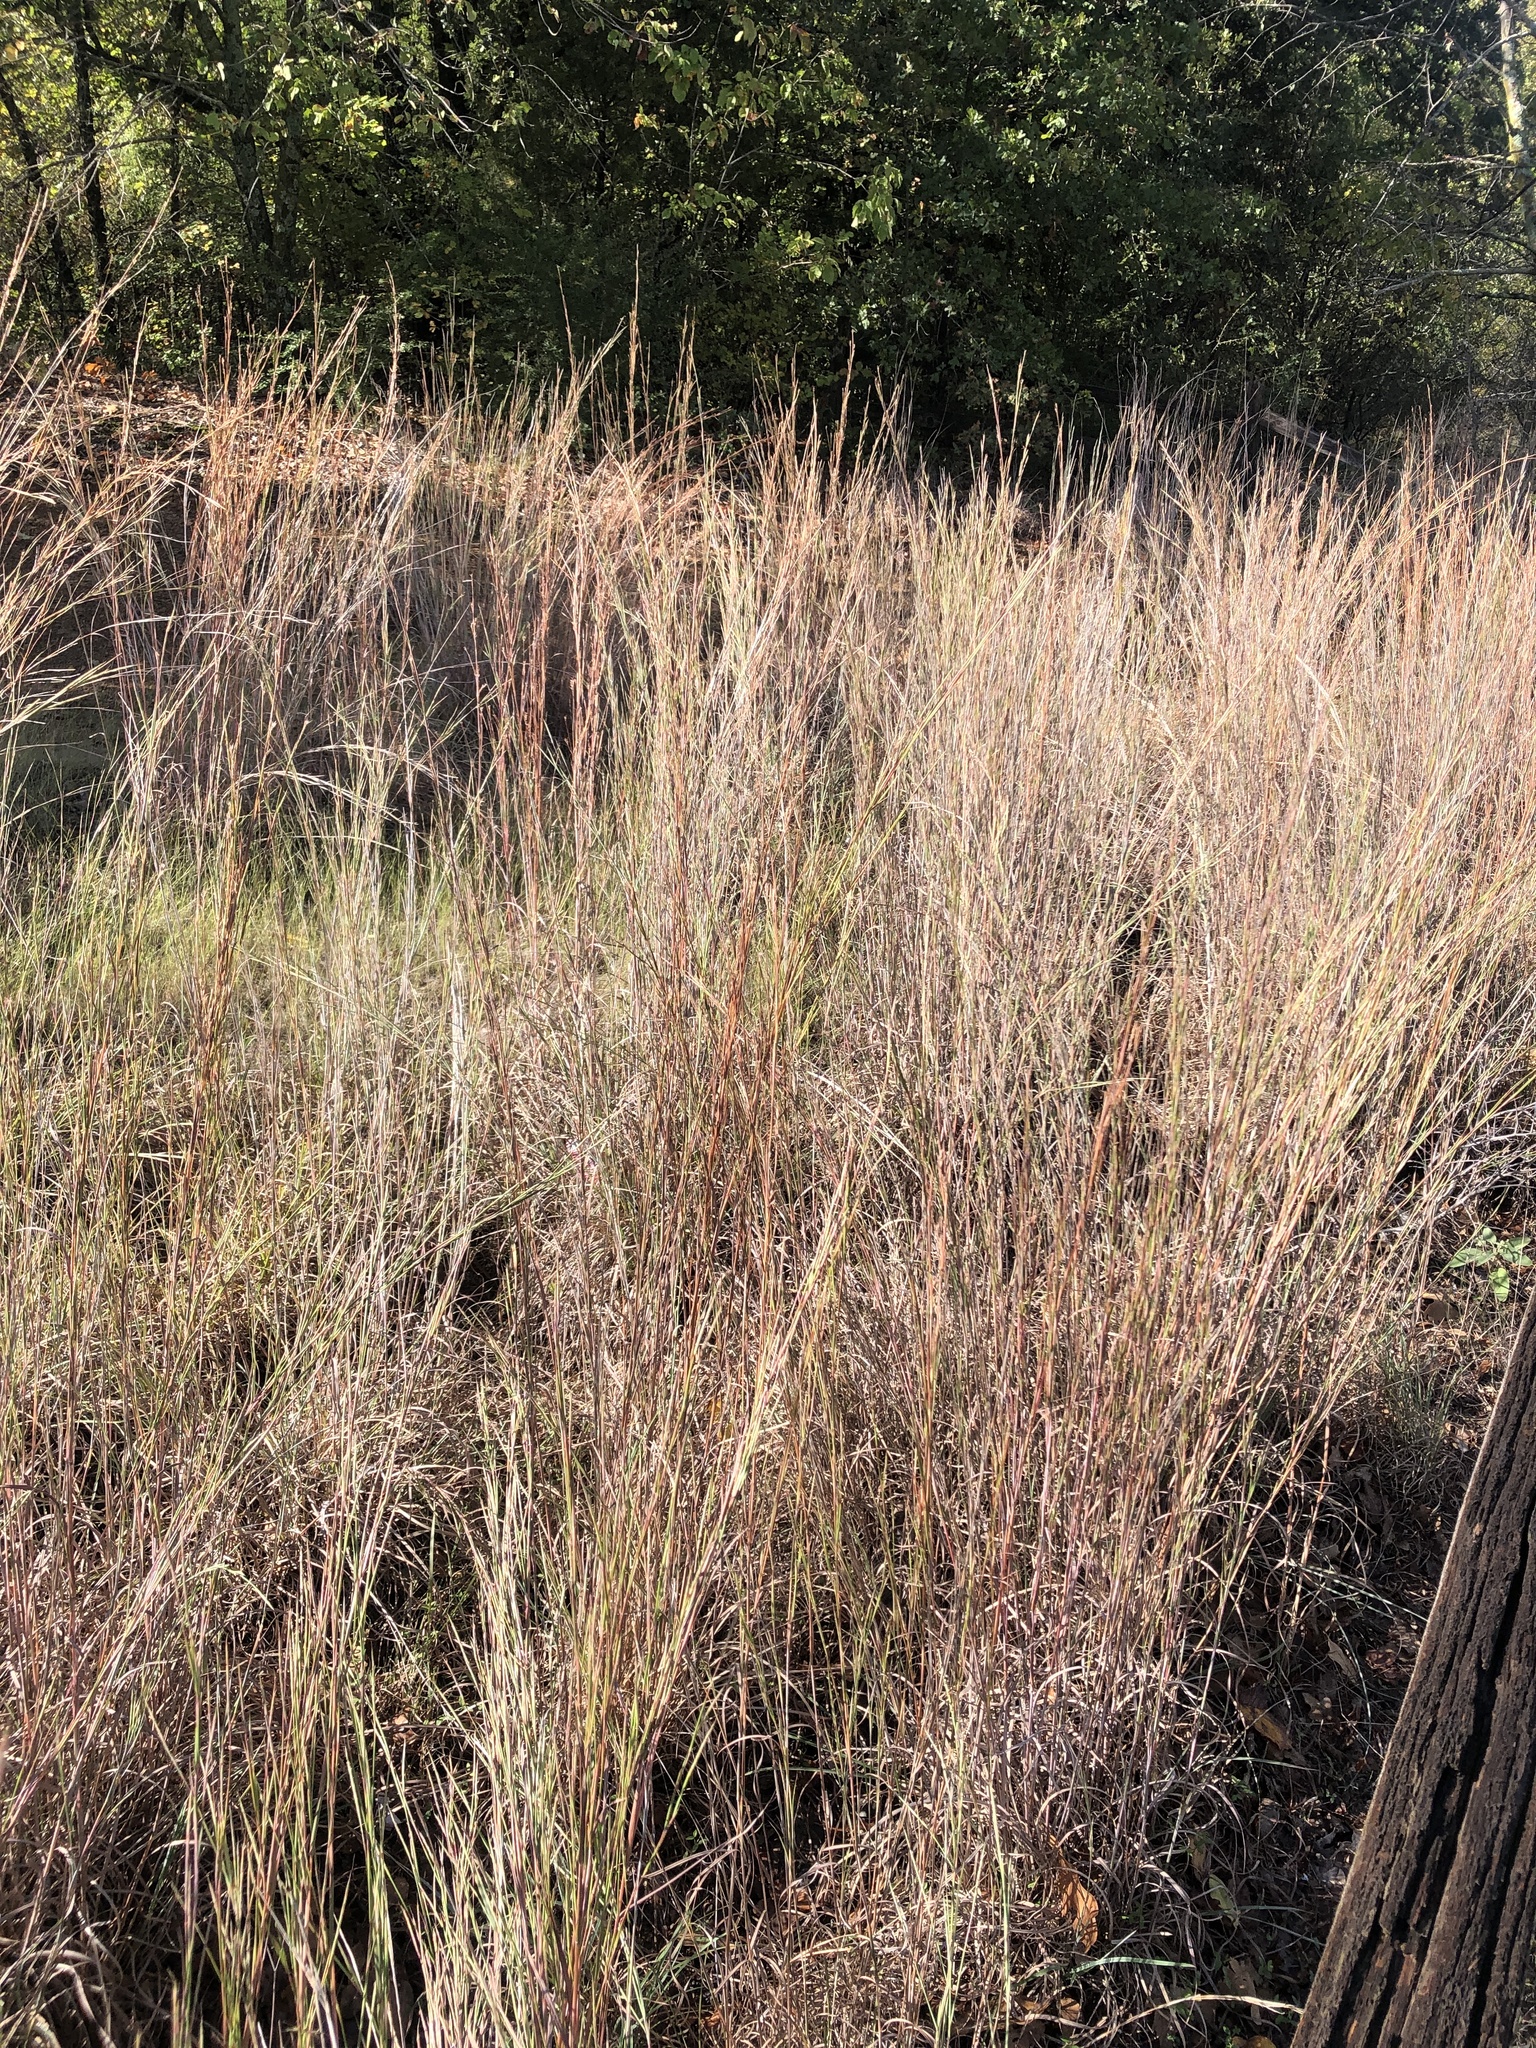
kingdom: Plantae
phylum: Tracheophyta
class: Liliopsida
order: Poales
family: Poaceae
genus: Schizachyrium
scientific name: Schizachyrium scoparium
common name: Little bluestem
